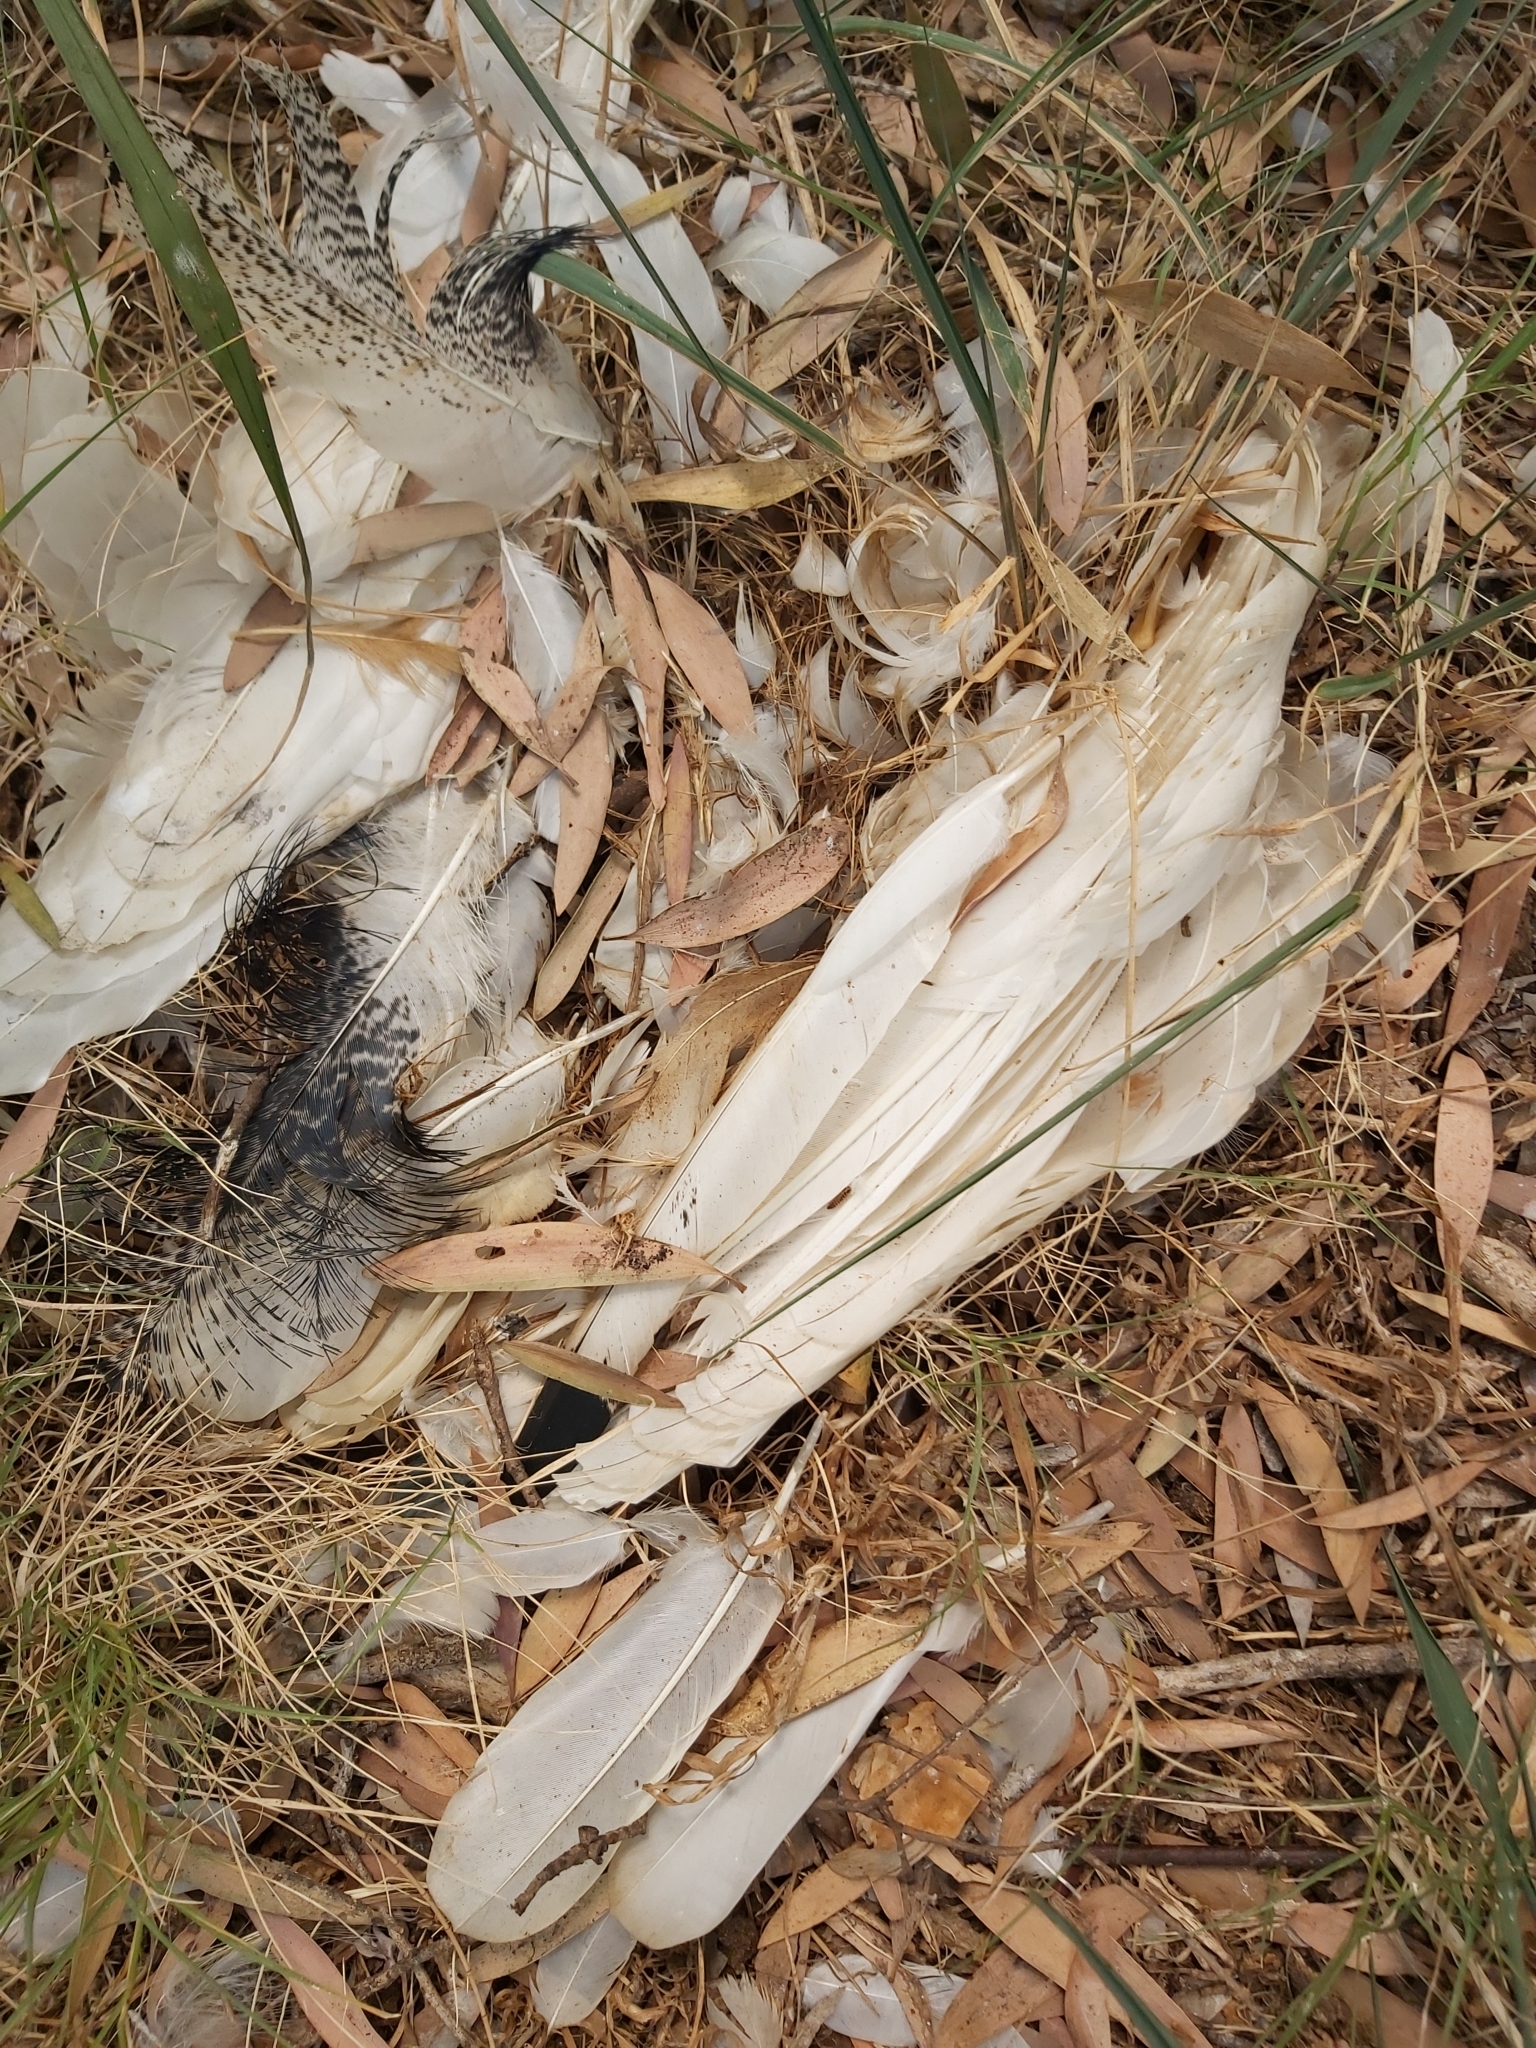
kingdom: Animalia
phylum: Chordata
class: Aves
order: Pelecaniformes
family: Threskiornithidae
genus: Threskiornis
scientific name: Threskiornis molucca
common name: Australian white ibis
